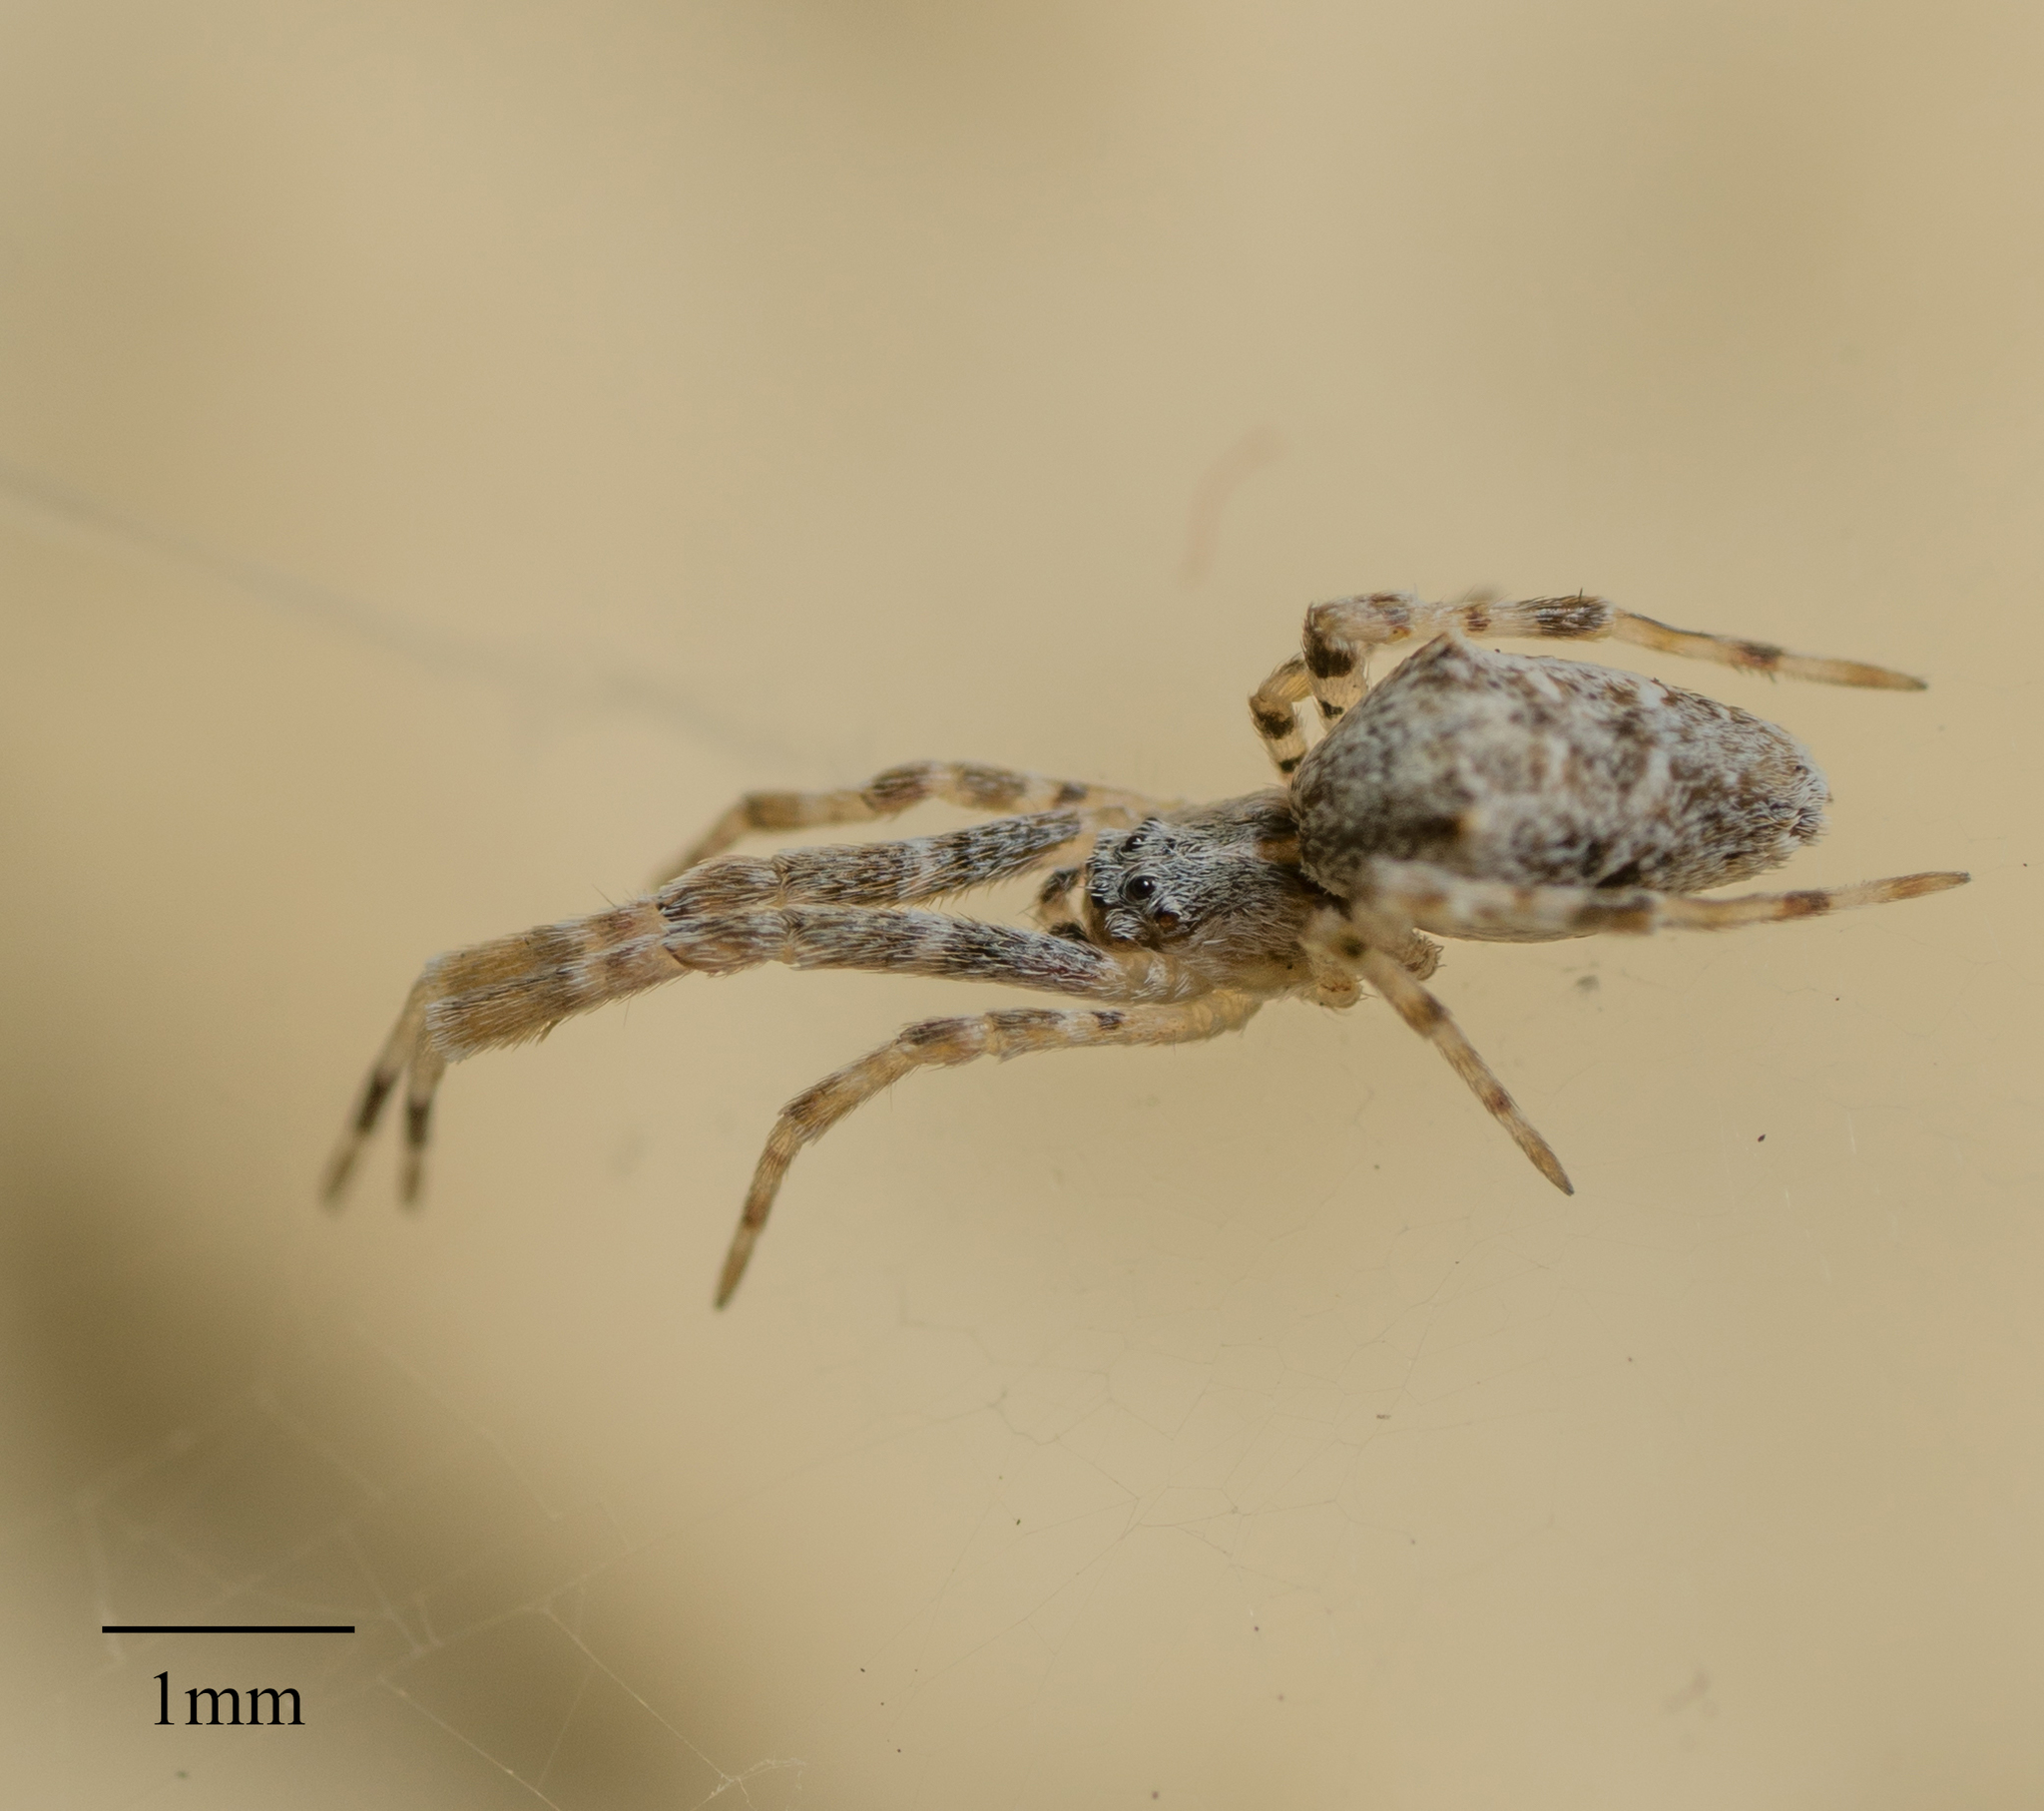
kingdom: Animalia
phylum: Arthropoda
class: Arachnida
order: Araneae
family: Uloboridae
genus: Uloborus
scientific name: Uloborus diversus
